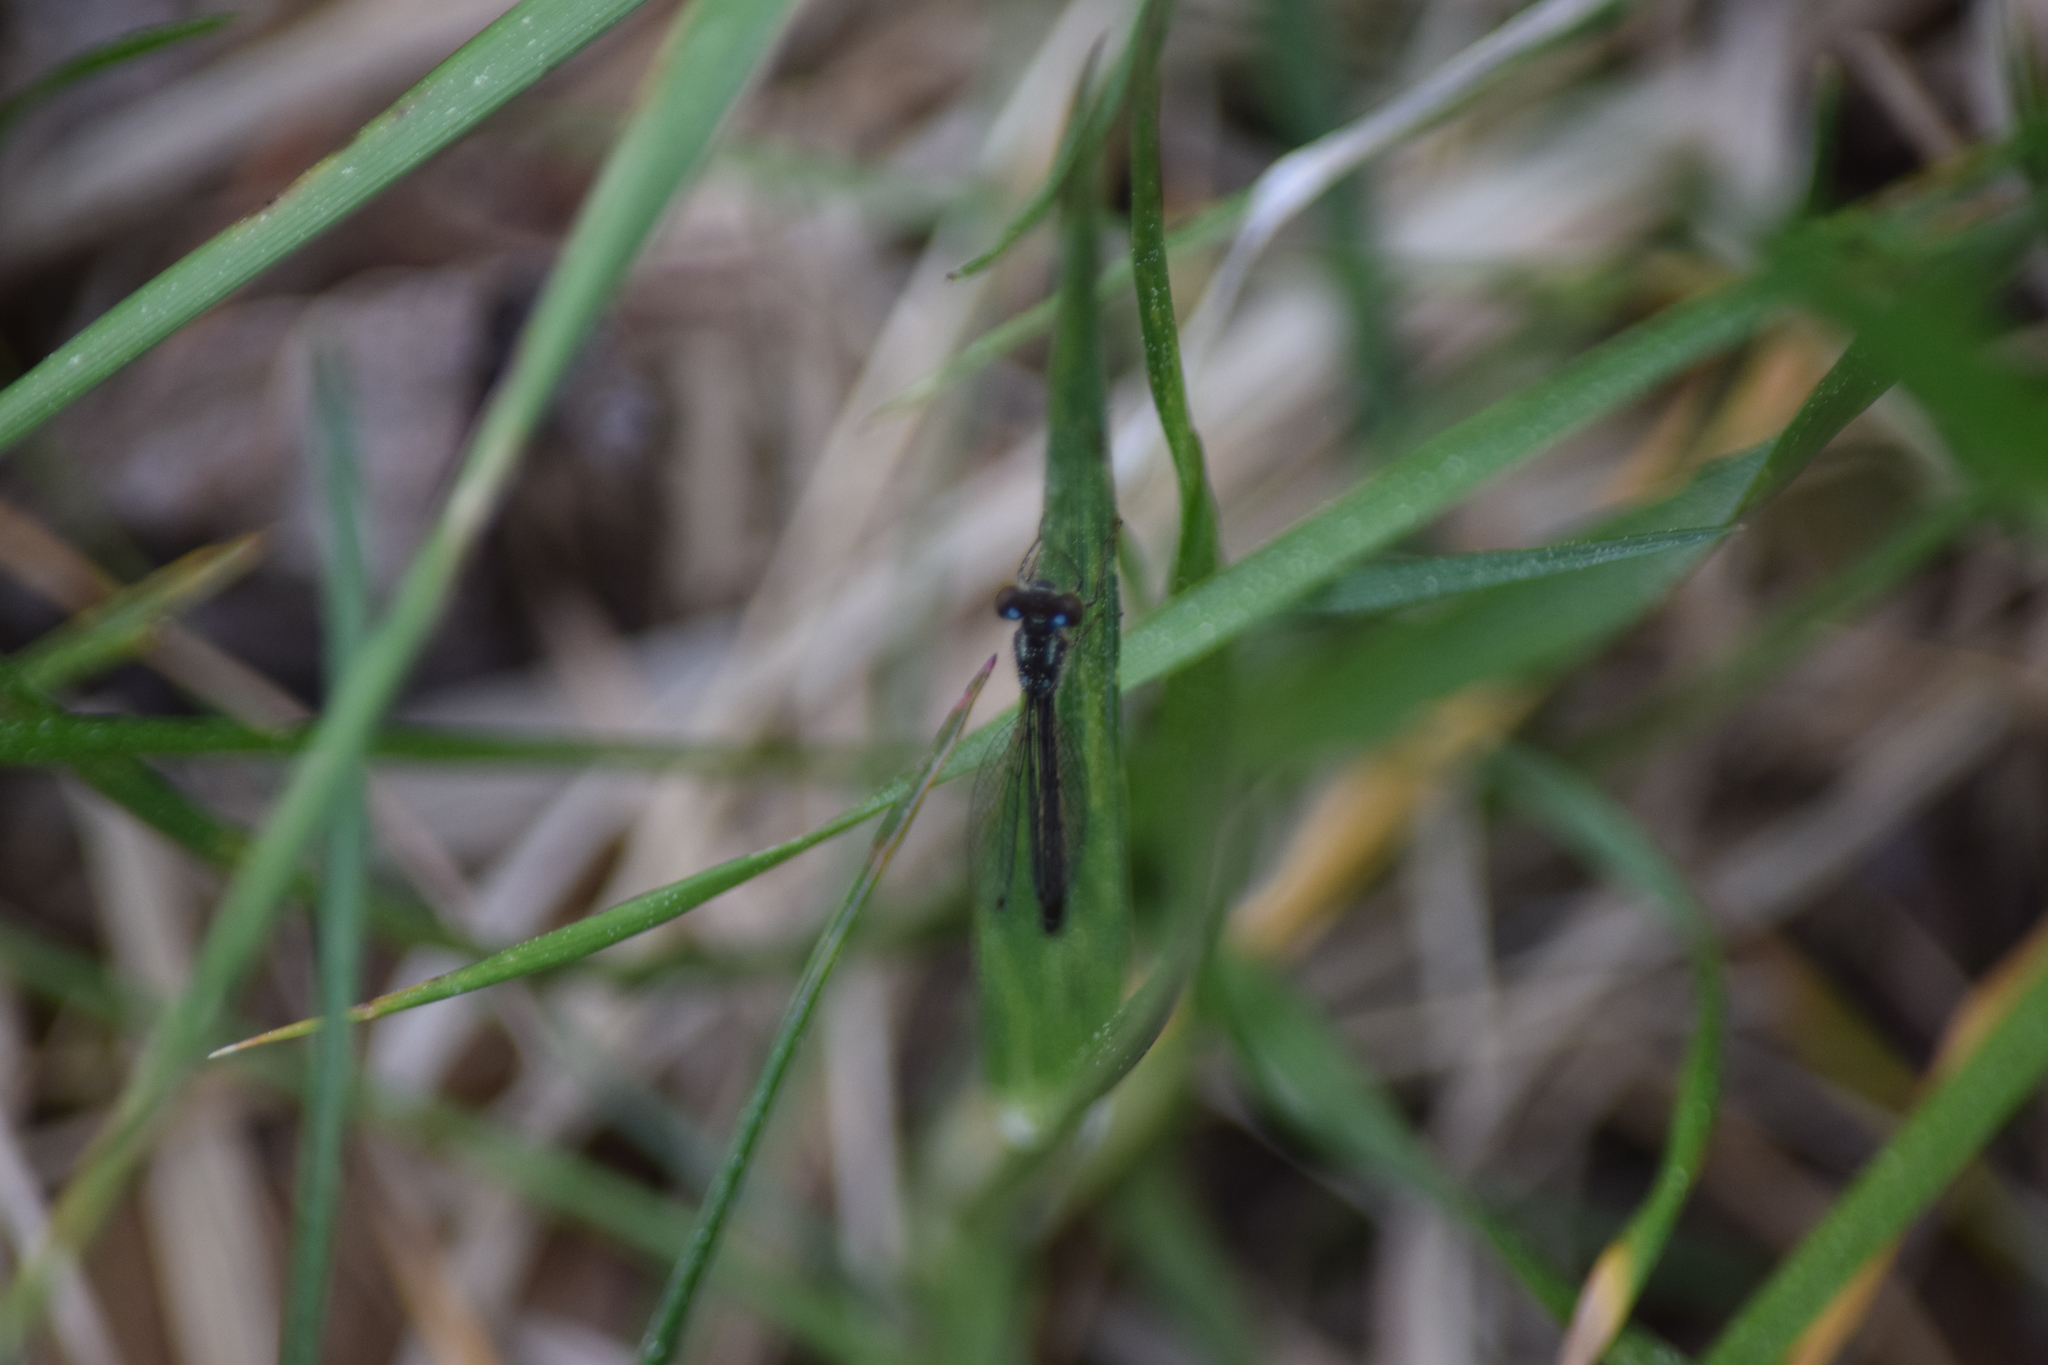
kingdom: Animalia
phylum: Arthropoda
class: Insecta
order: Odonata
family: Coenagrionidae
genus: Ischnura
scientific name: Ischnura posita
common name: Fragile forktail
